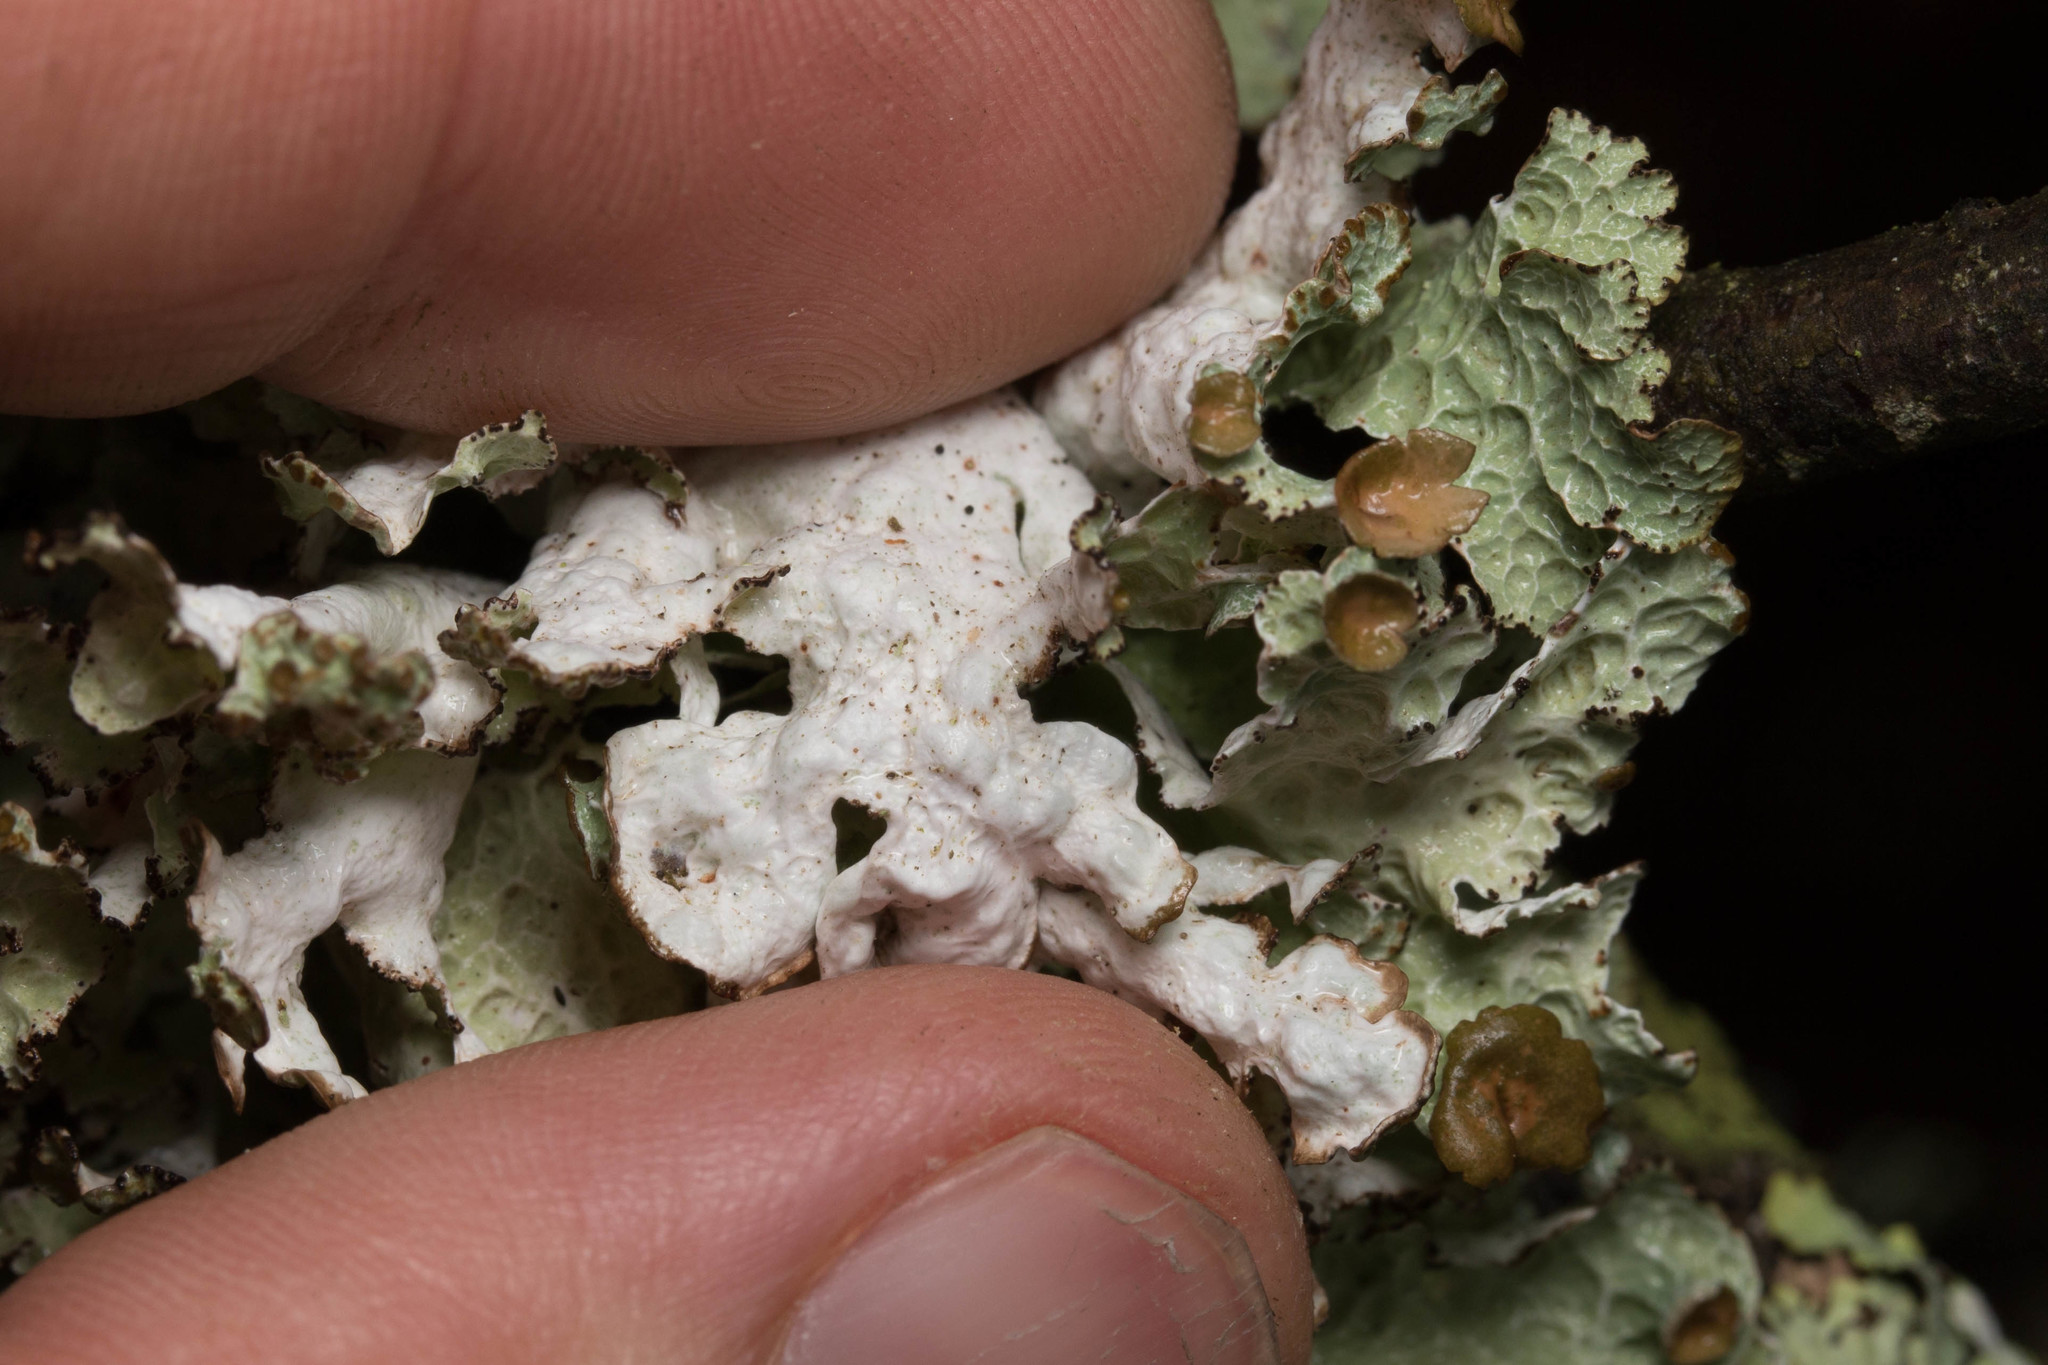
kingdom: Fungi
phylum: Ascomycota
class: Lecanoromycetes
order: Lecanorales
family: Parmeliaceae
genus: Platismatia
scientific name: Platismatia tuckermanii
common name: Crumpled rag lichen
